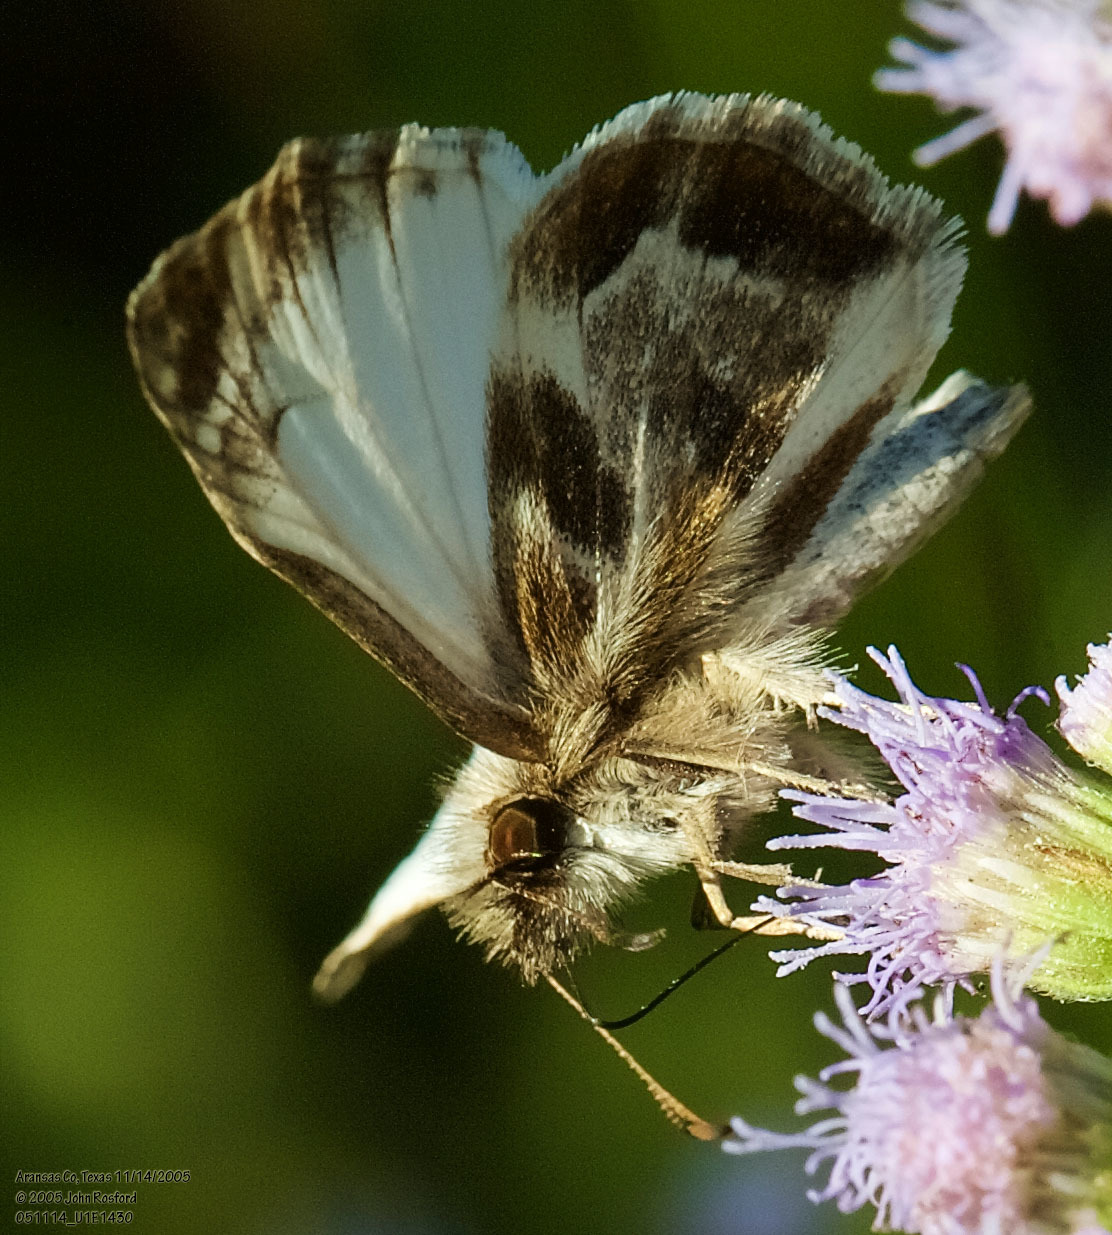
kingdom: Animalia
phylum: Arthropoda
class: Insecta
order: Lepidoptera
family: Hesperiidae
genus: Heliopetes
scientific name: Heliopetes macaira
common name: Turk's-cap white-skipper
